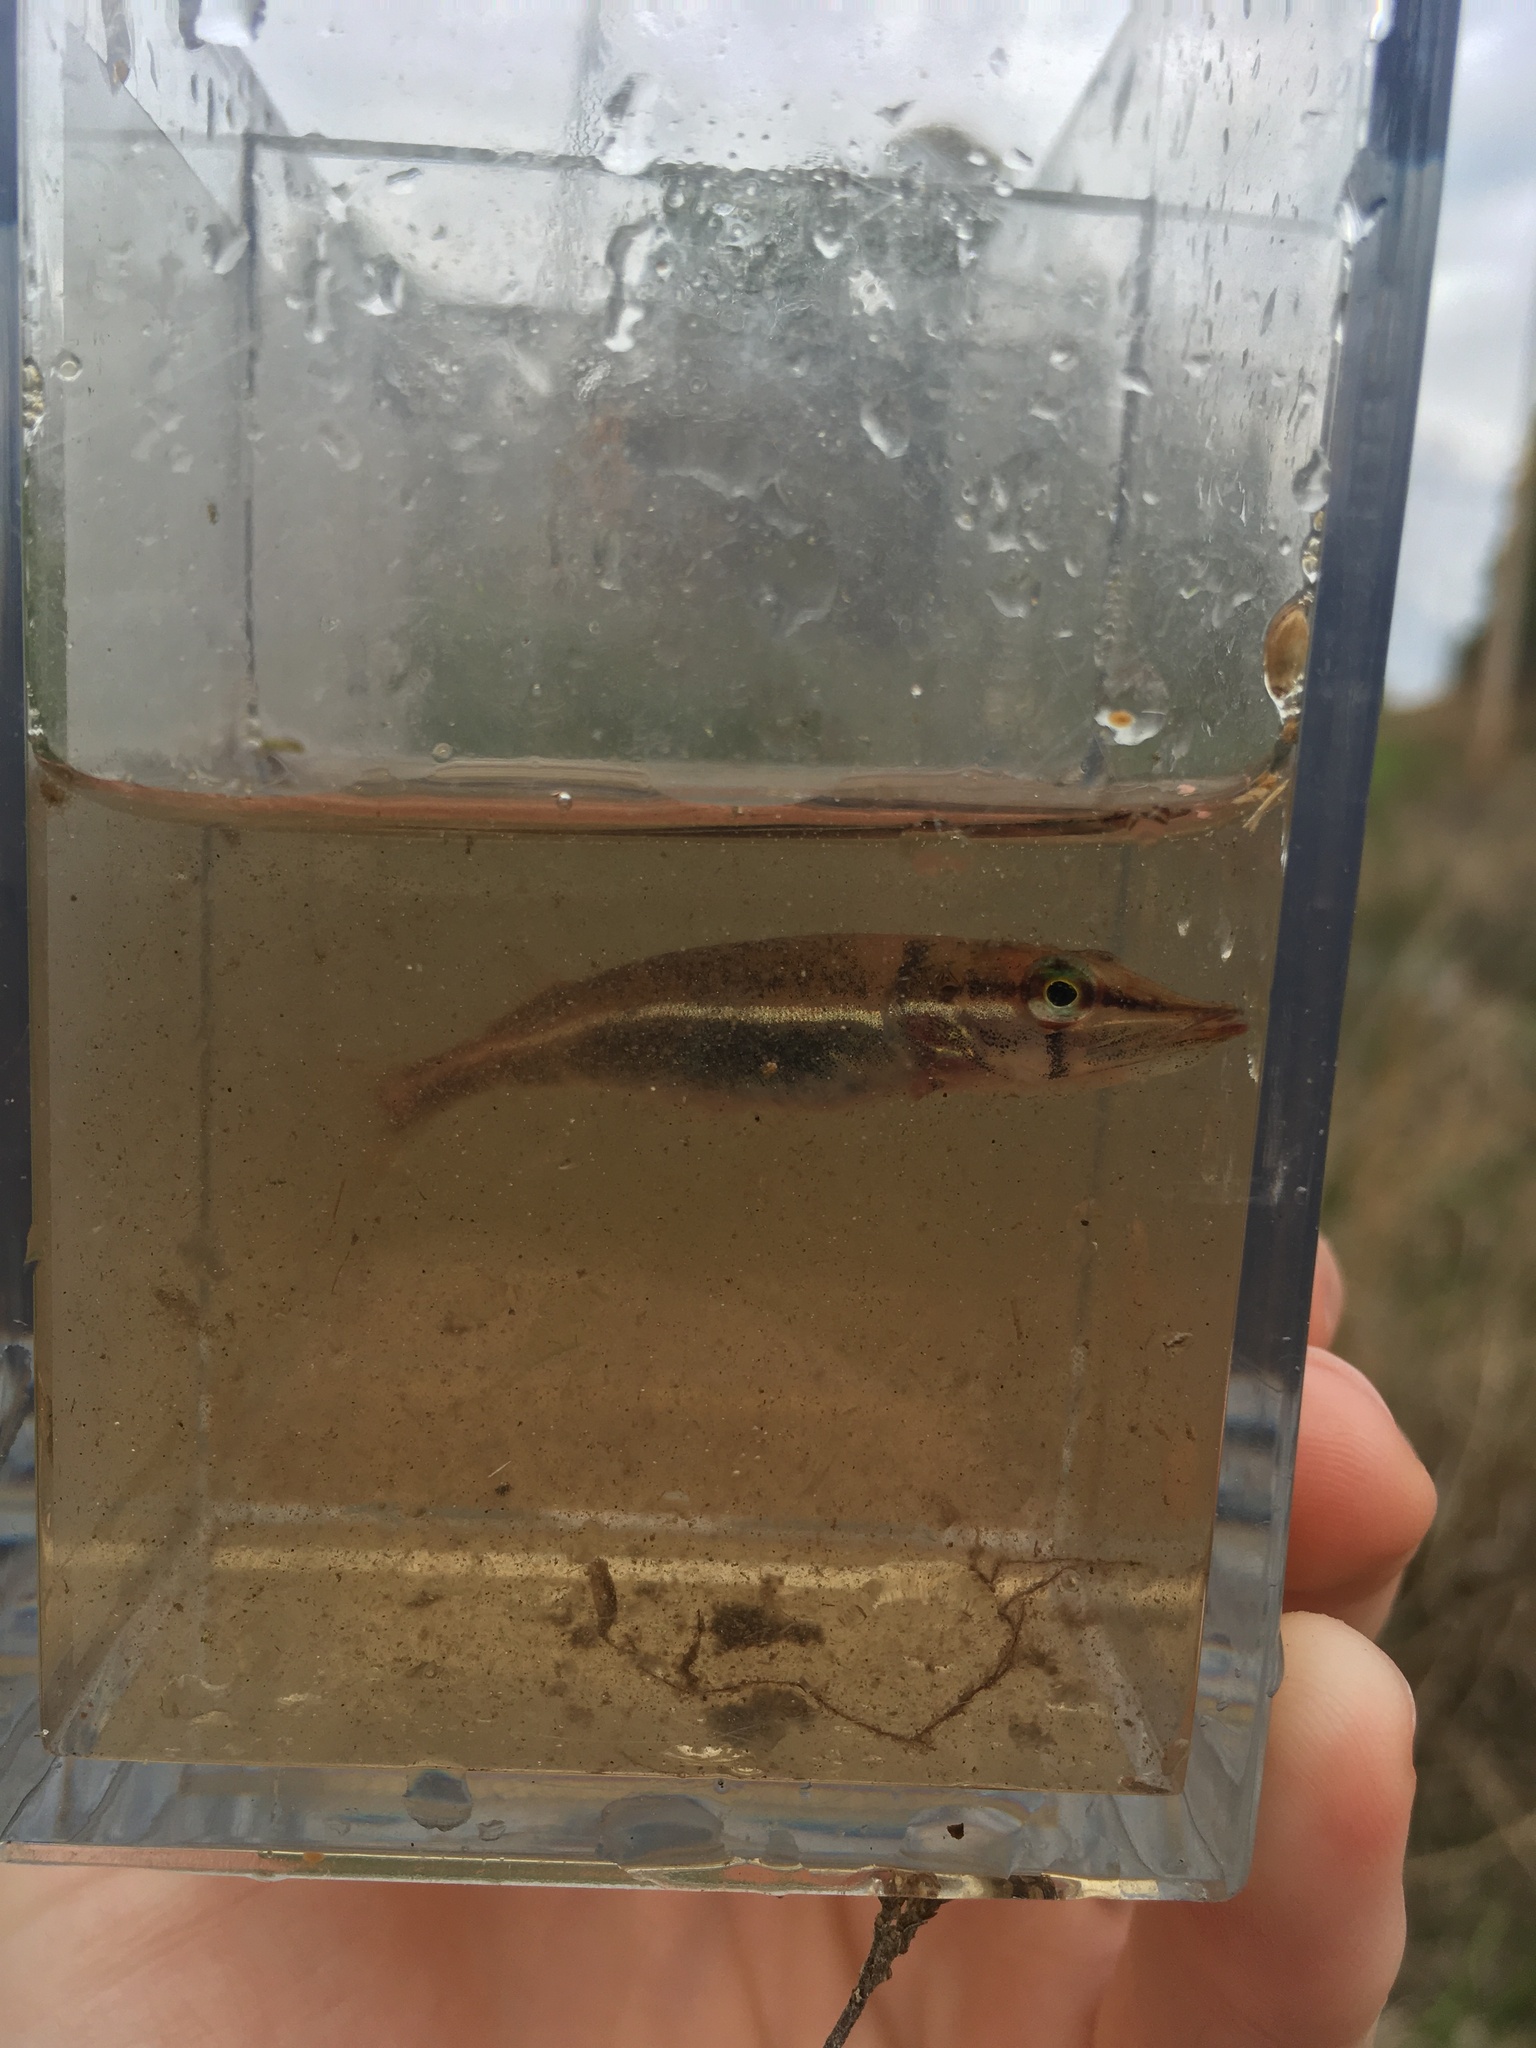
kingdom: Animalia
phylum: Chordata
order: Esociformes
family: Esocidae
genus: Esox
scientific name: Esox americanus
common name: Redfin pickerel
